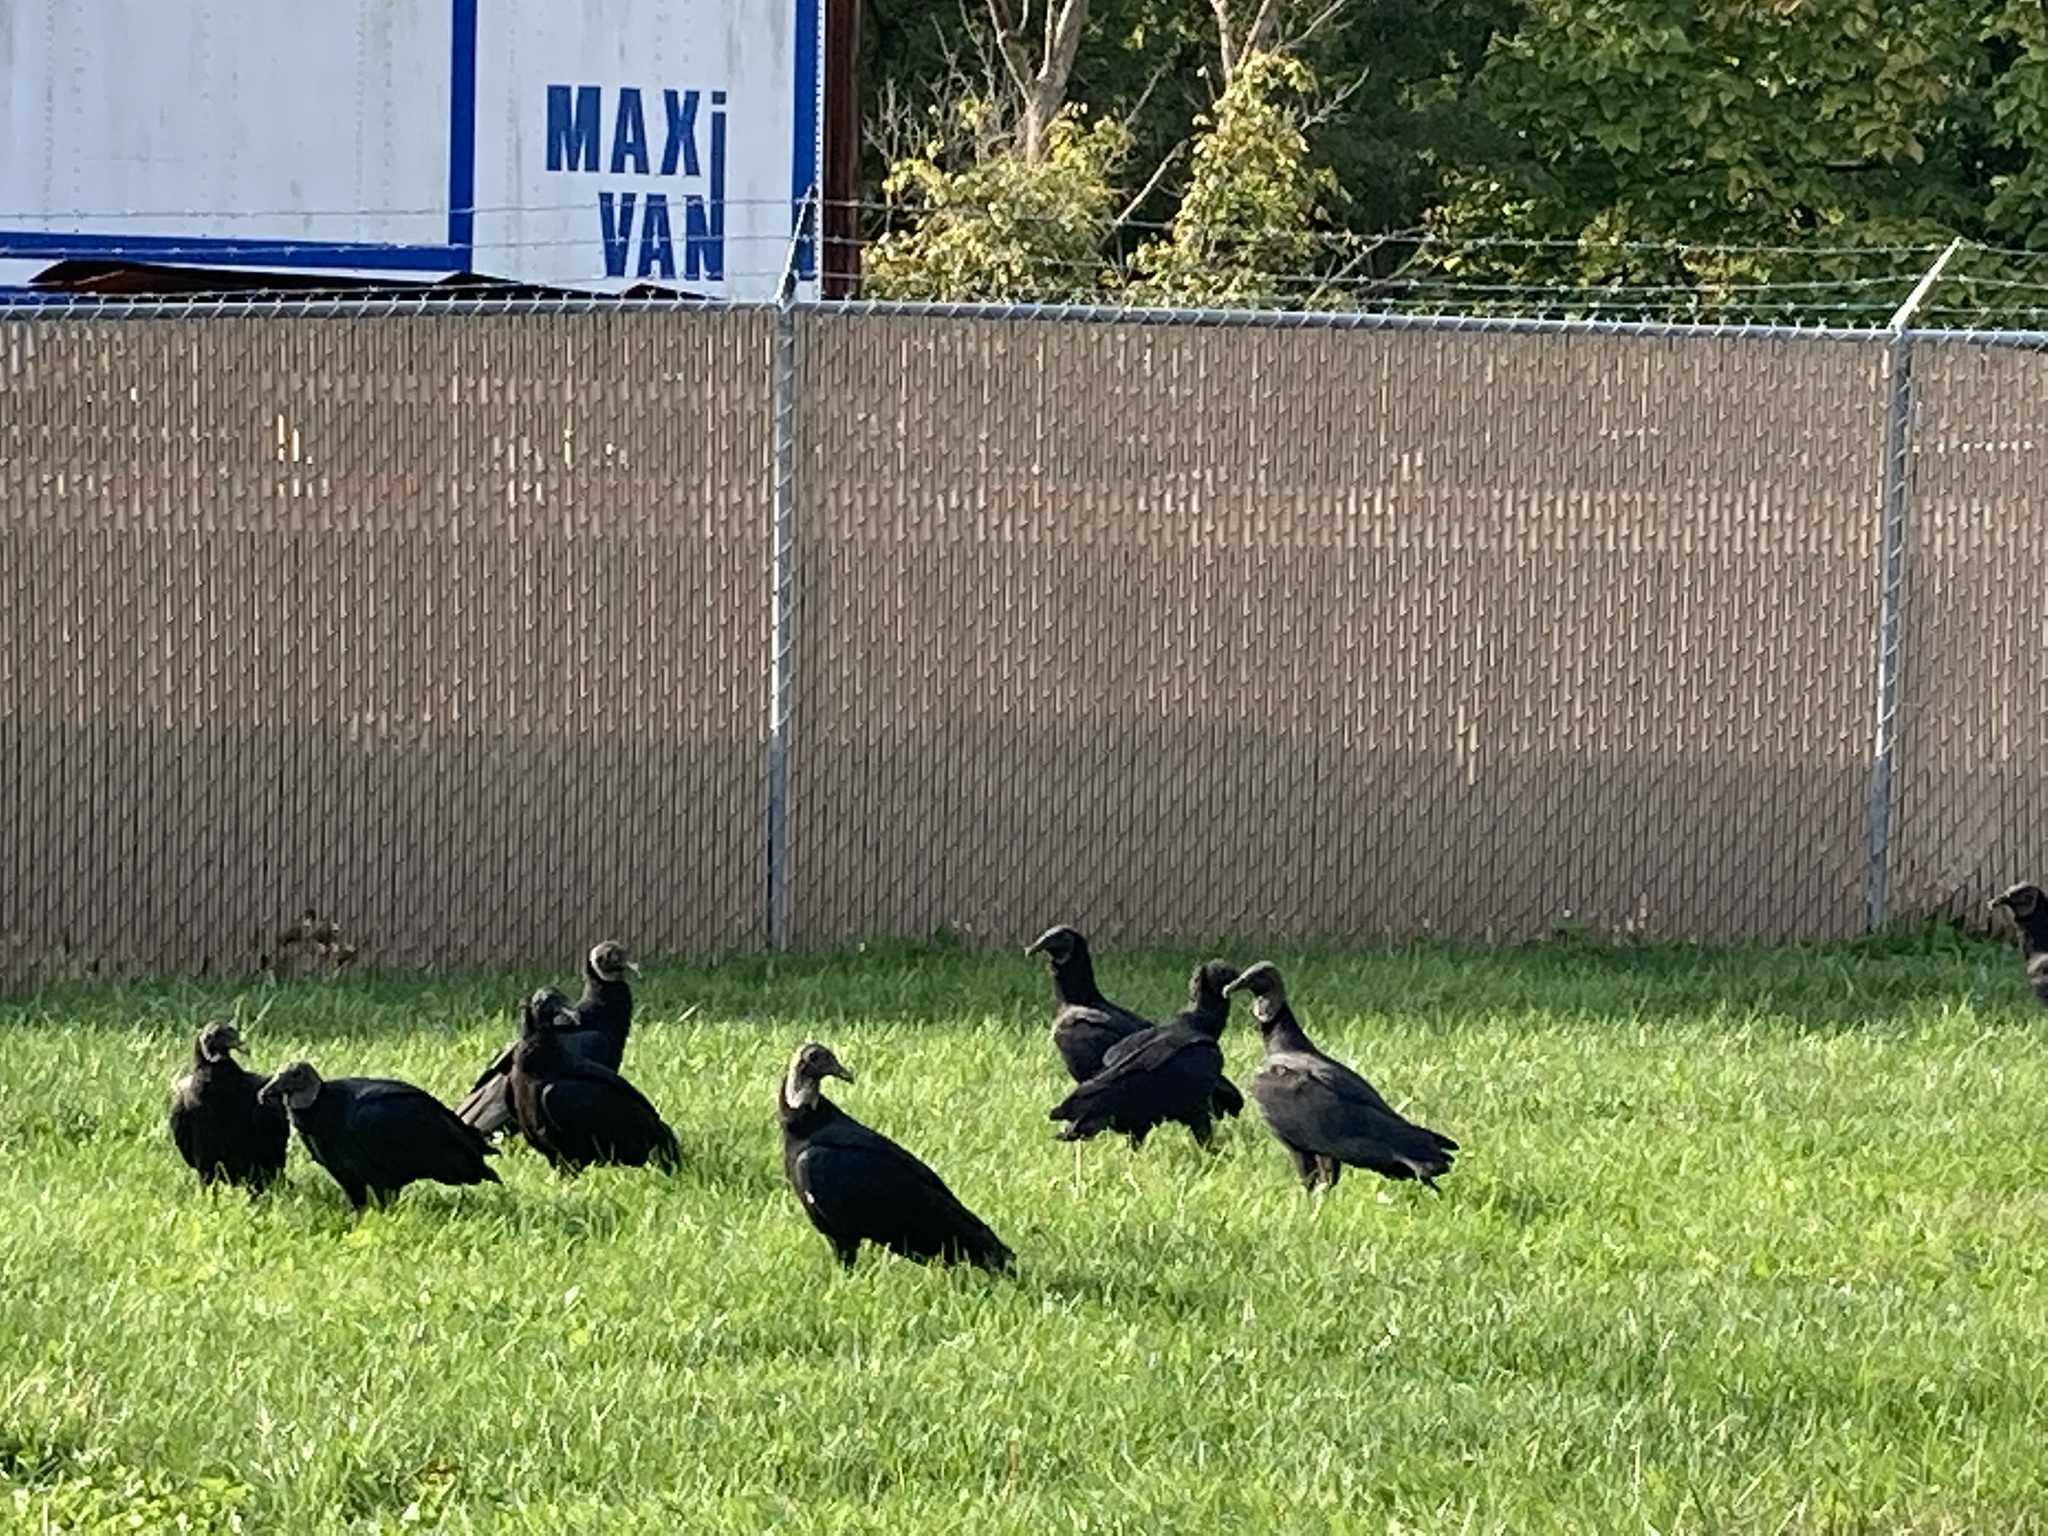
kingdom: Animalia
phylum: Chordata
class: Aves
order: Accipitriformes
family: Cathartidae
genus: Coragyps
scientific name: Coragyps atratus
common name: Black vulture
